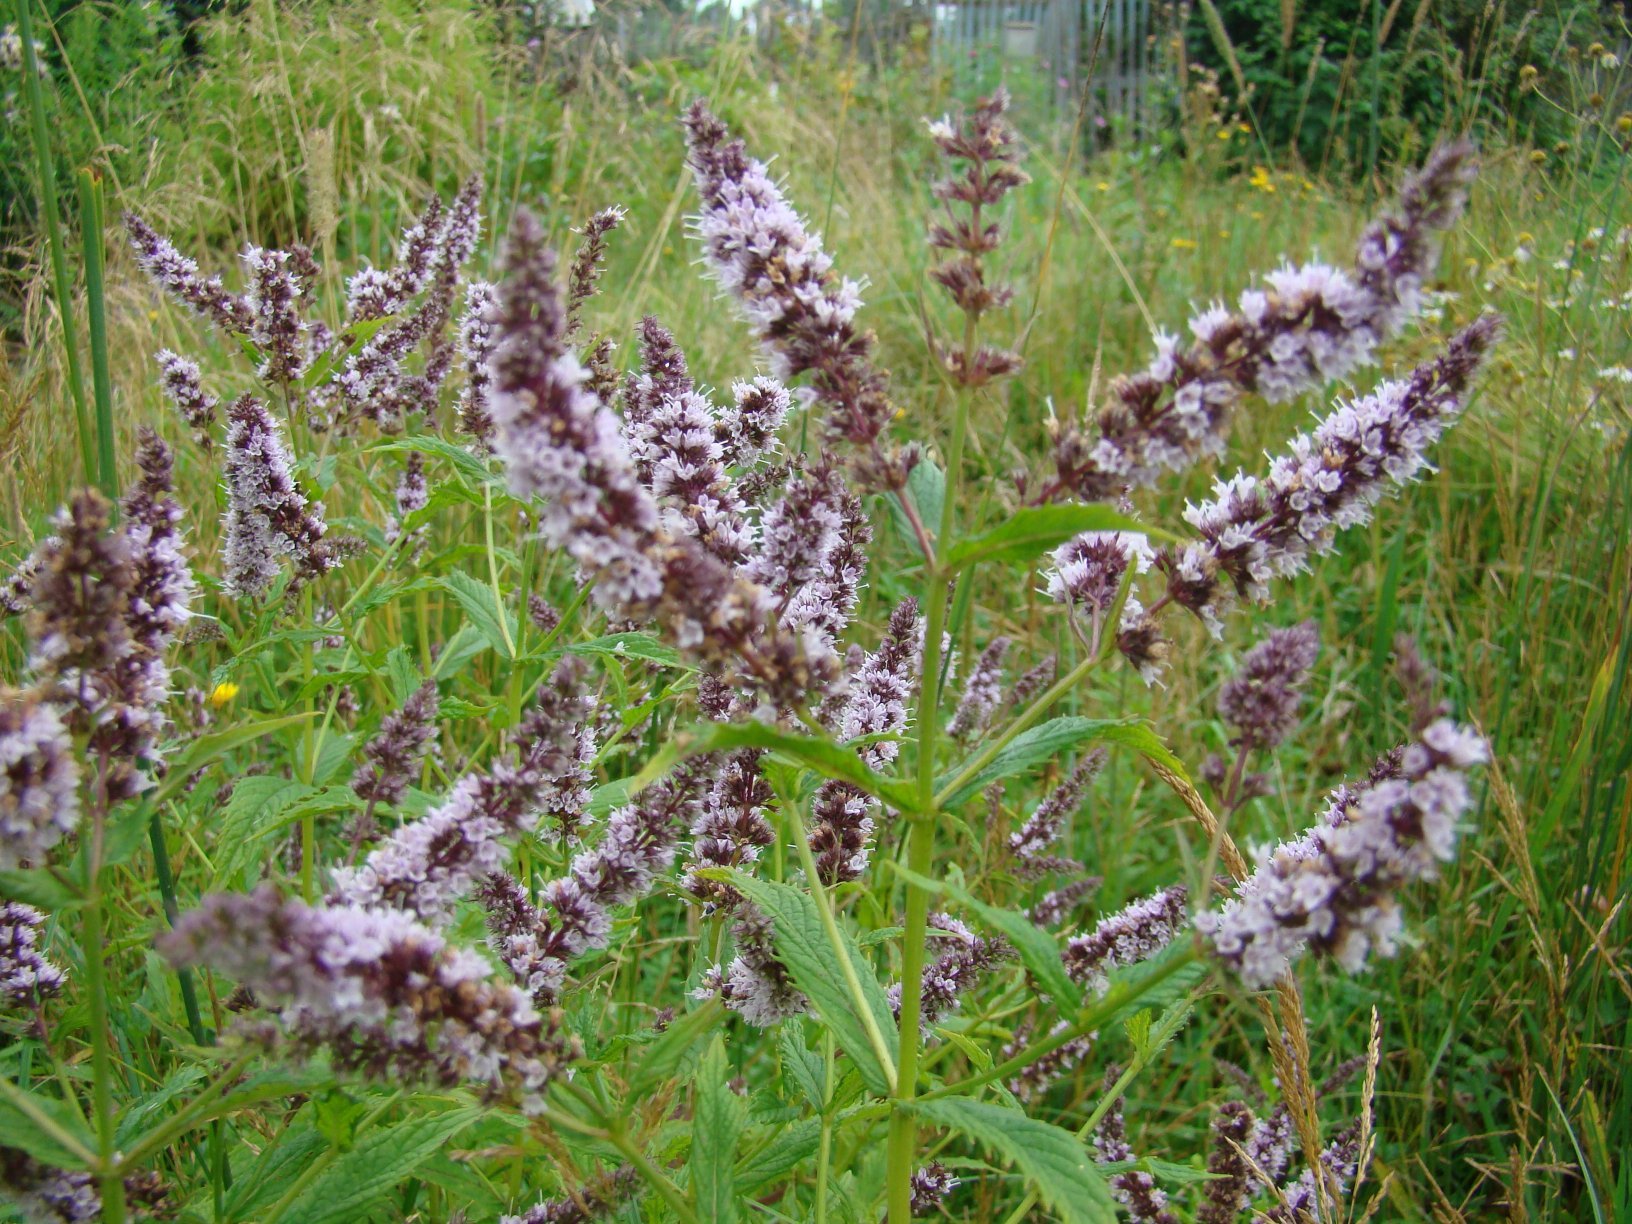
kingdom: Plantae
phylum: Tracheophyta
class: Magnoliopsida
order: Lamiales
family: Lamiaceae
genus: Mentha
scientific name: Mentha spicata
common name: Spearmint
